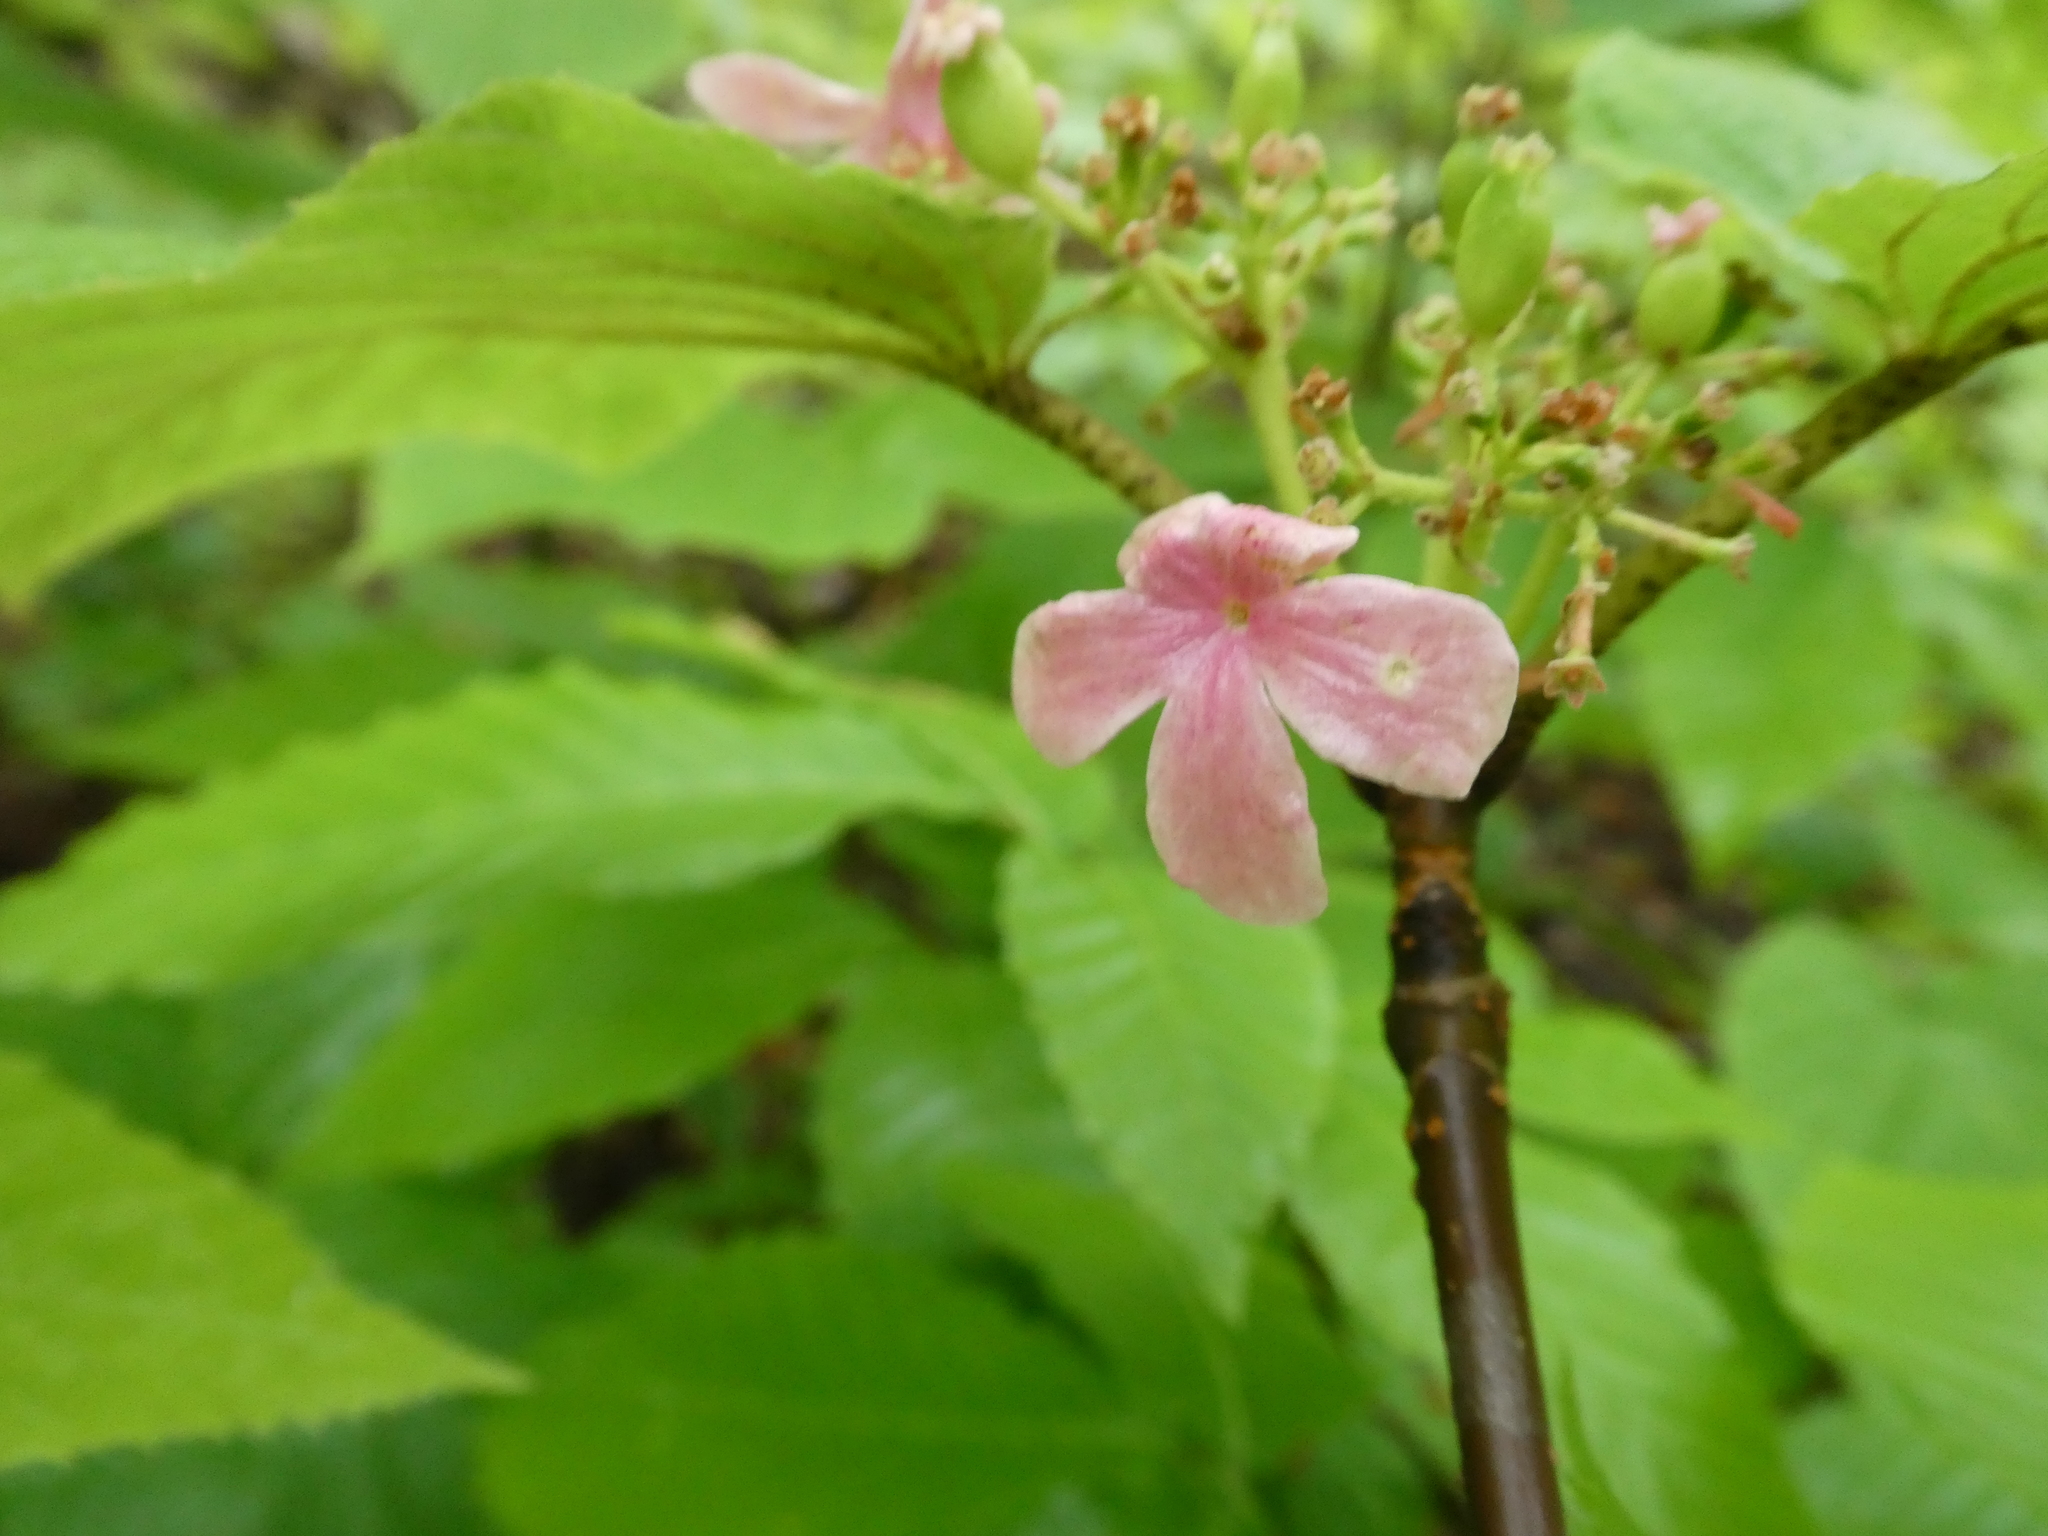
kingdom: Plantae
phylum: Tracheophyta
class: Magnoliopsida
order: Dipsacales
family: Viburnaceae
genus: Viburnum
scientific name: Viburnum lantanoides
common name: Hobblebush
